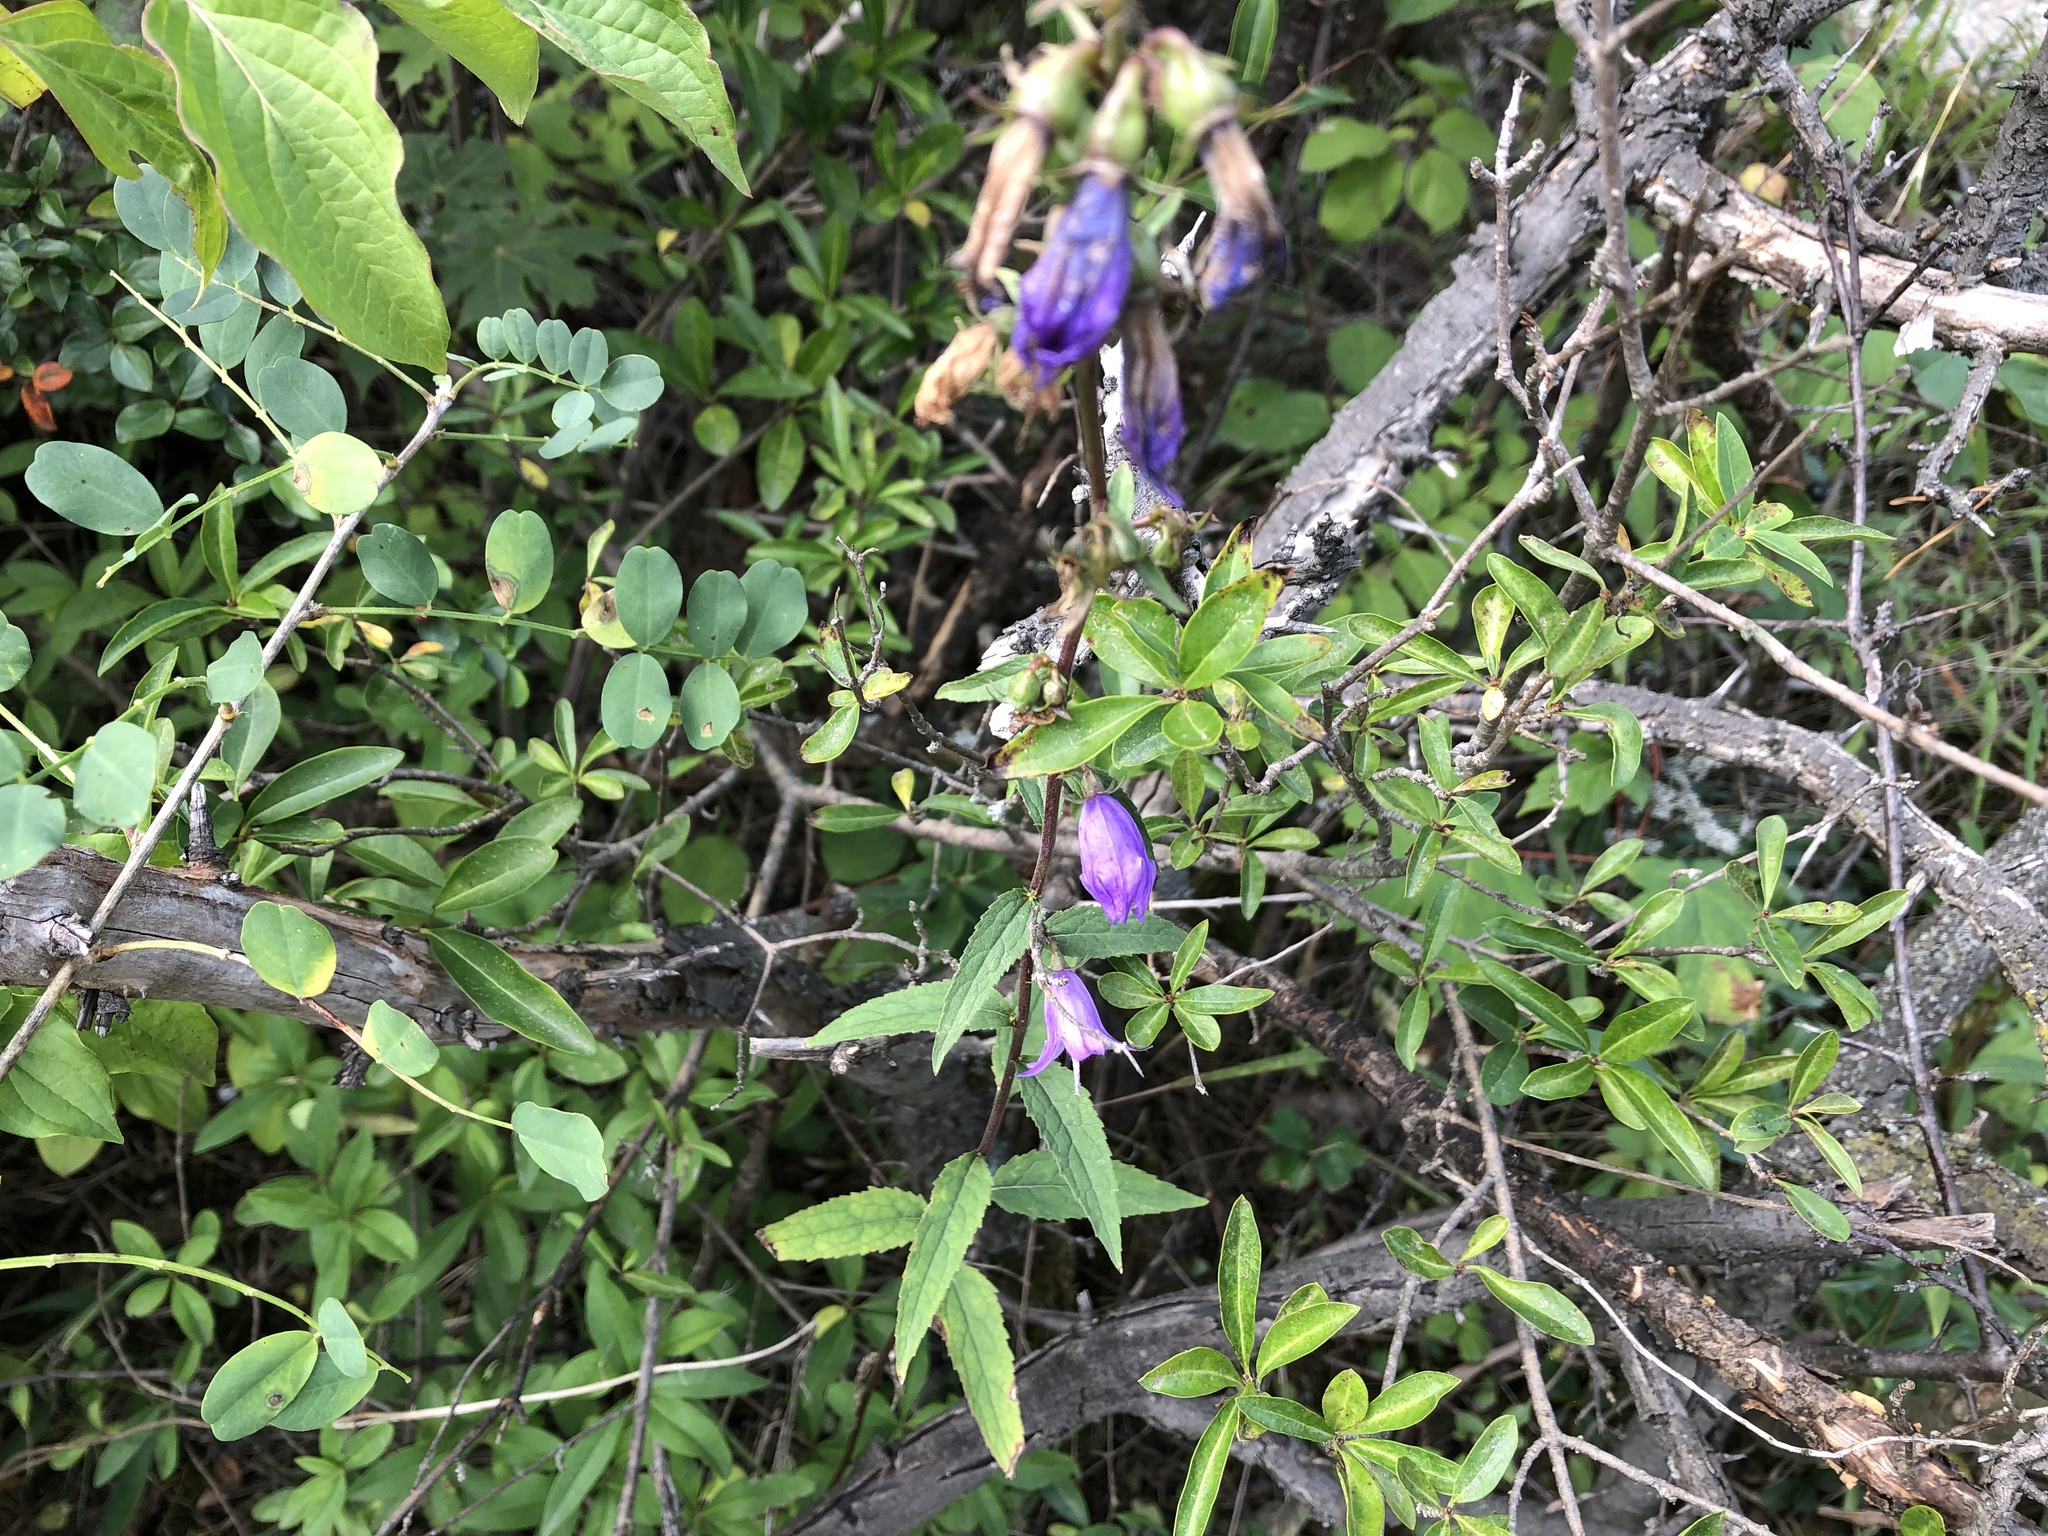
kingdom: Plantae
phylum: Tracheophyta
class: Magnoliopsida
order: Asterales
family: Campanulaceae
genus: Campanula
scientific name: Campanula rapunculoides
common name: Creeping bellflower
